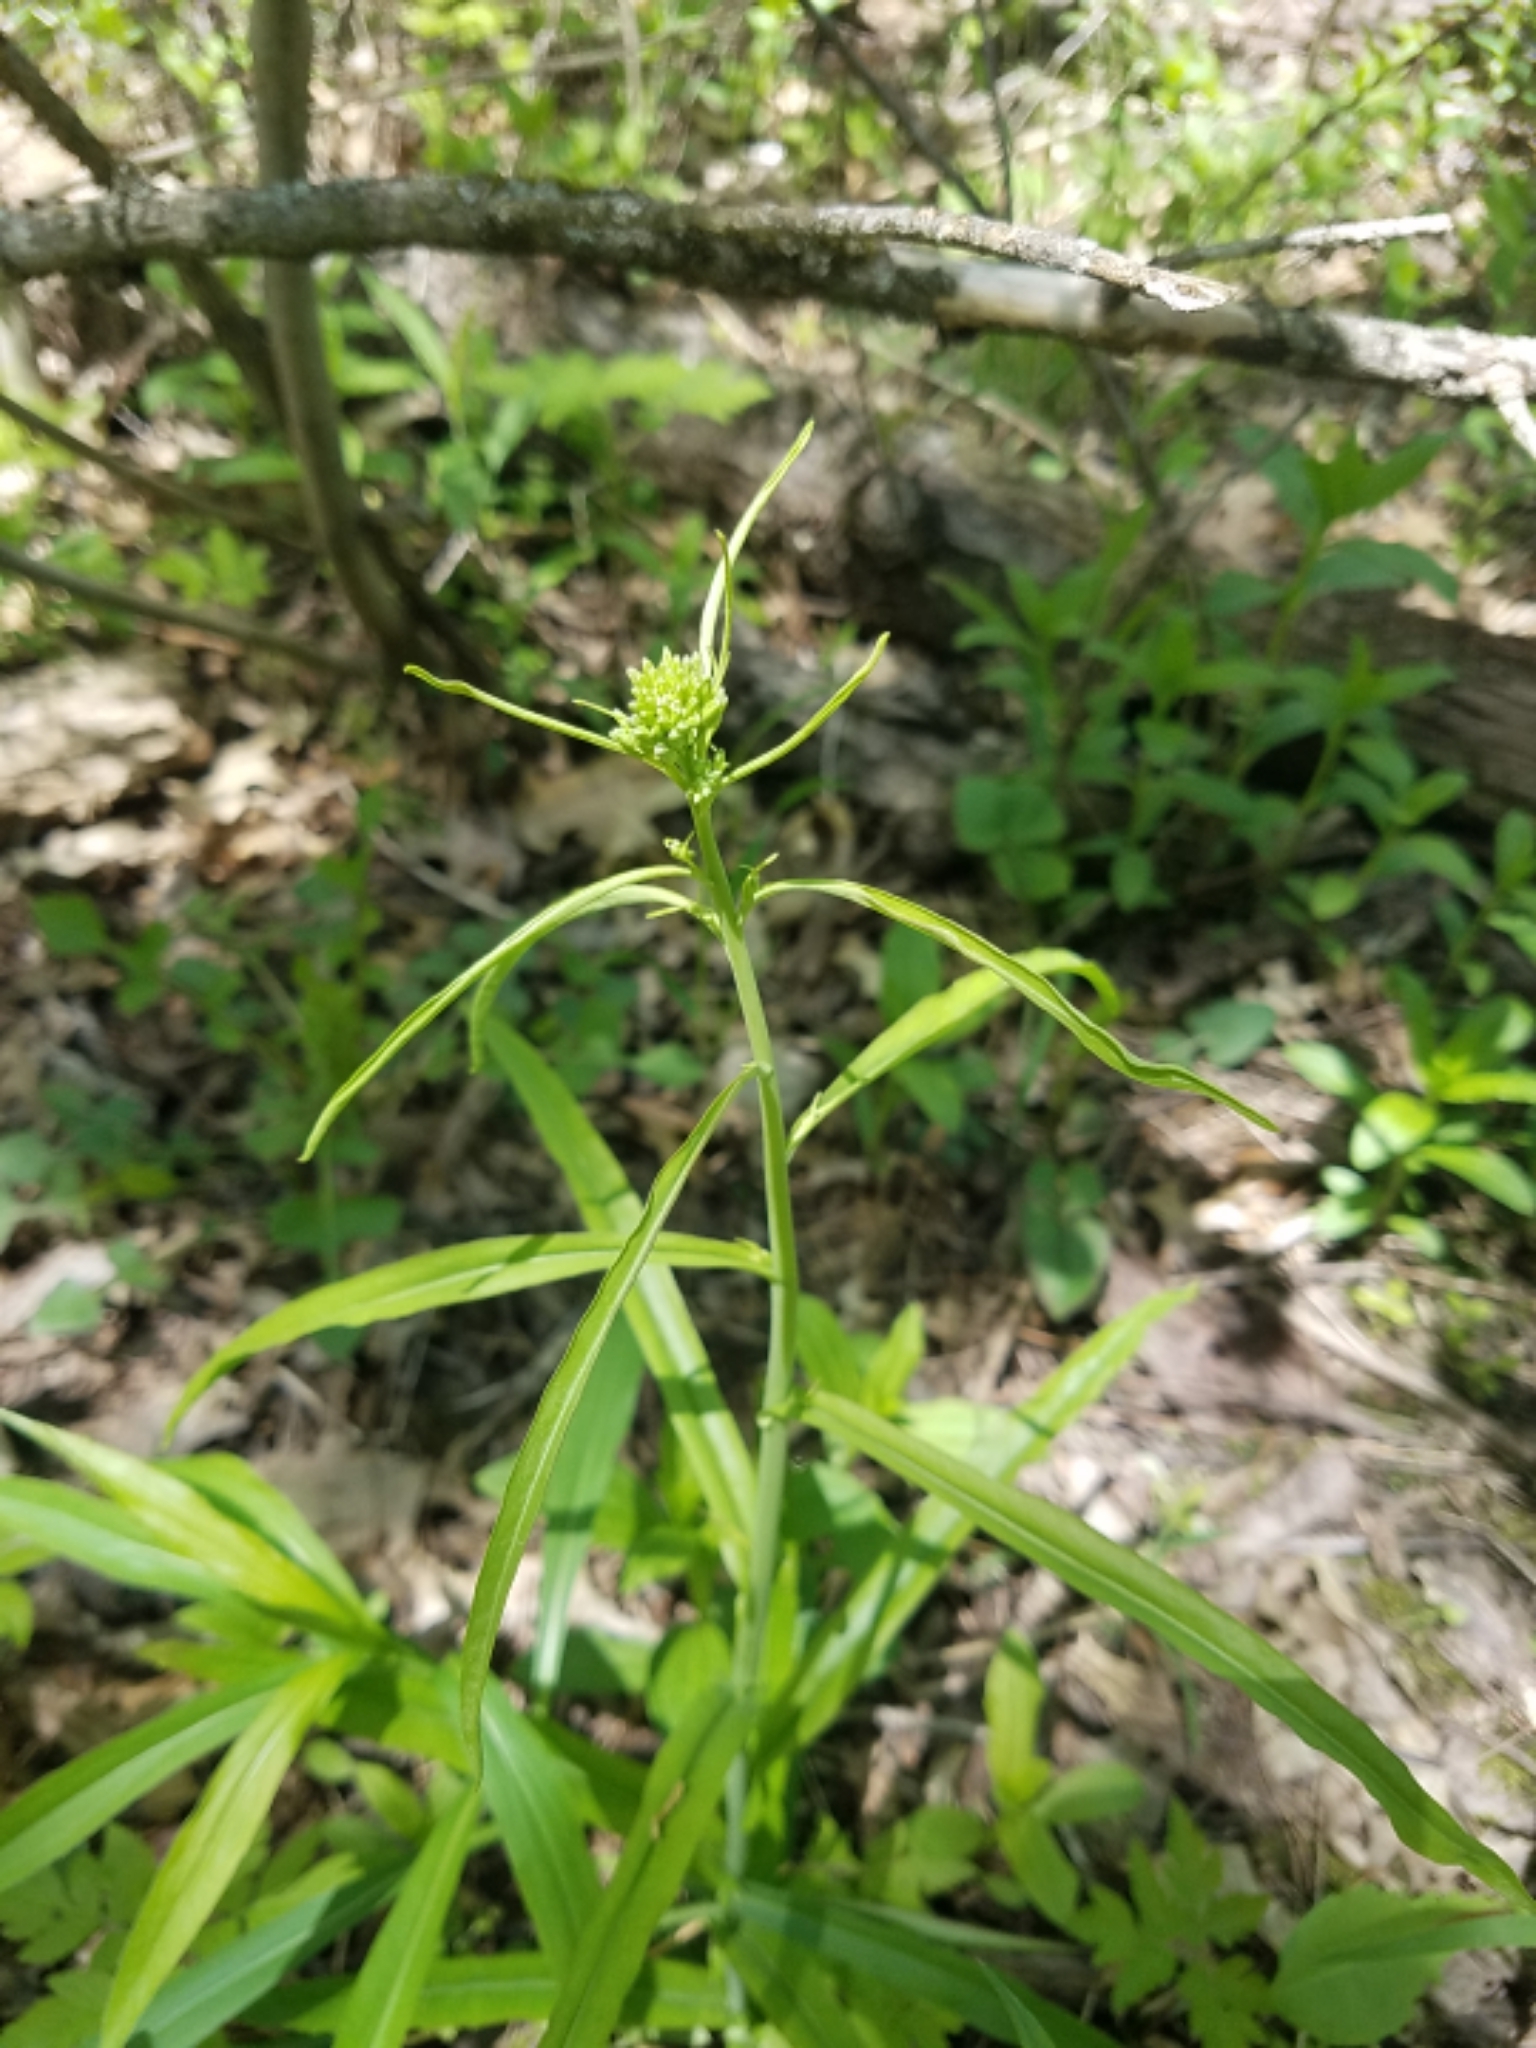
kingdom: Plantae
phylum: Tracheophyta
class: Magnoliopsida
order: Brassicales
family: Brassicaceae
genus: Borodinia
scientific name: Borodinia laevigata
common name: Smooth rockcress
